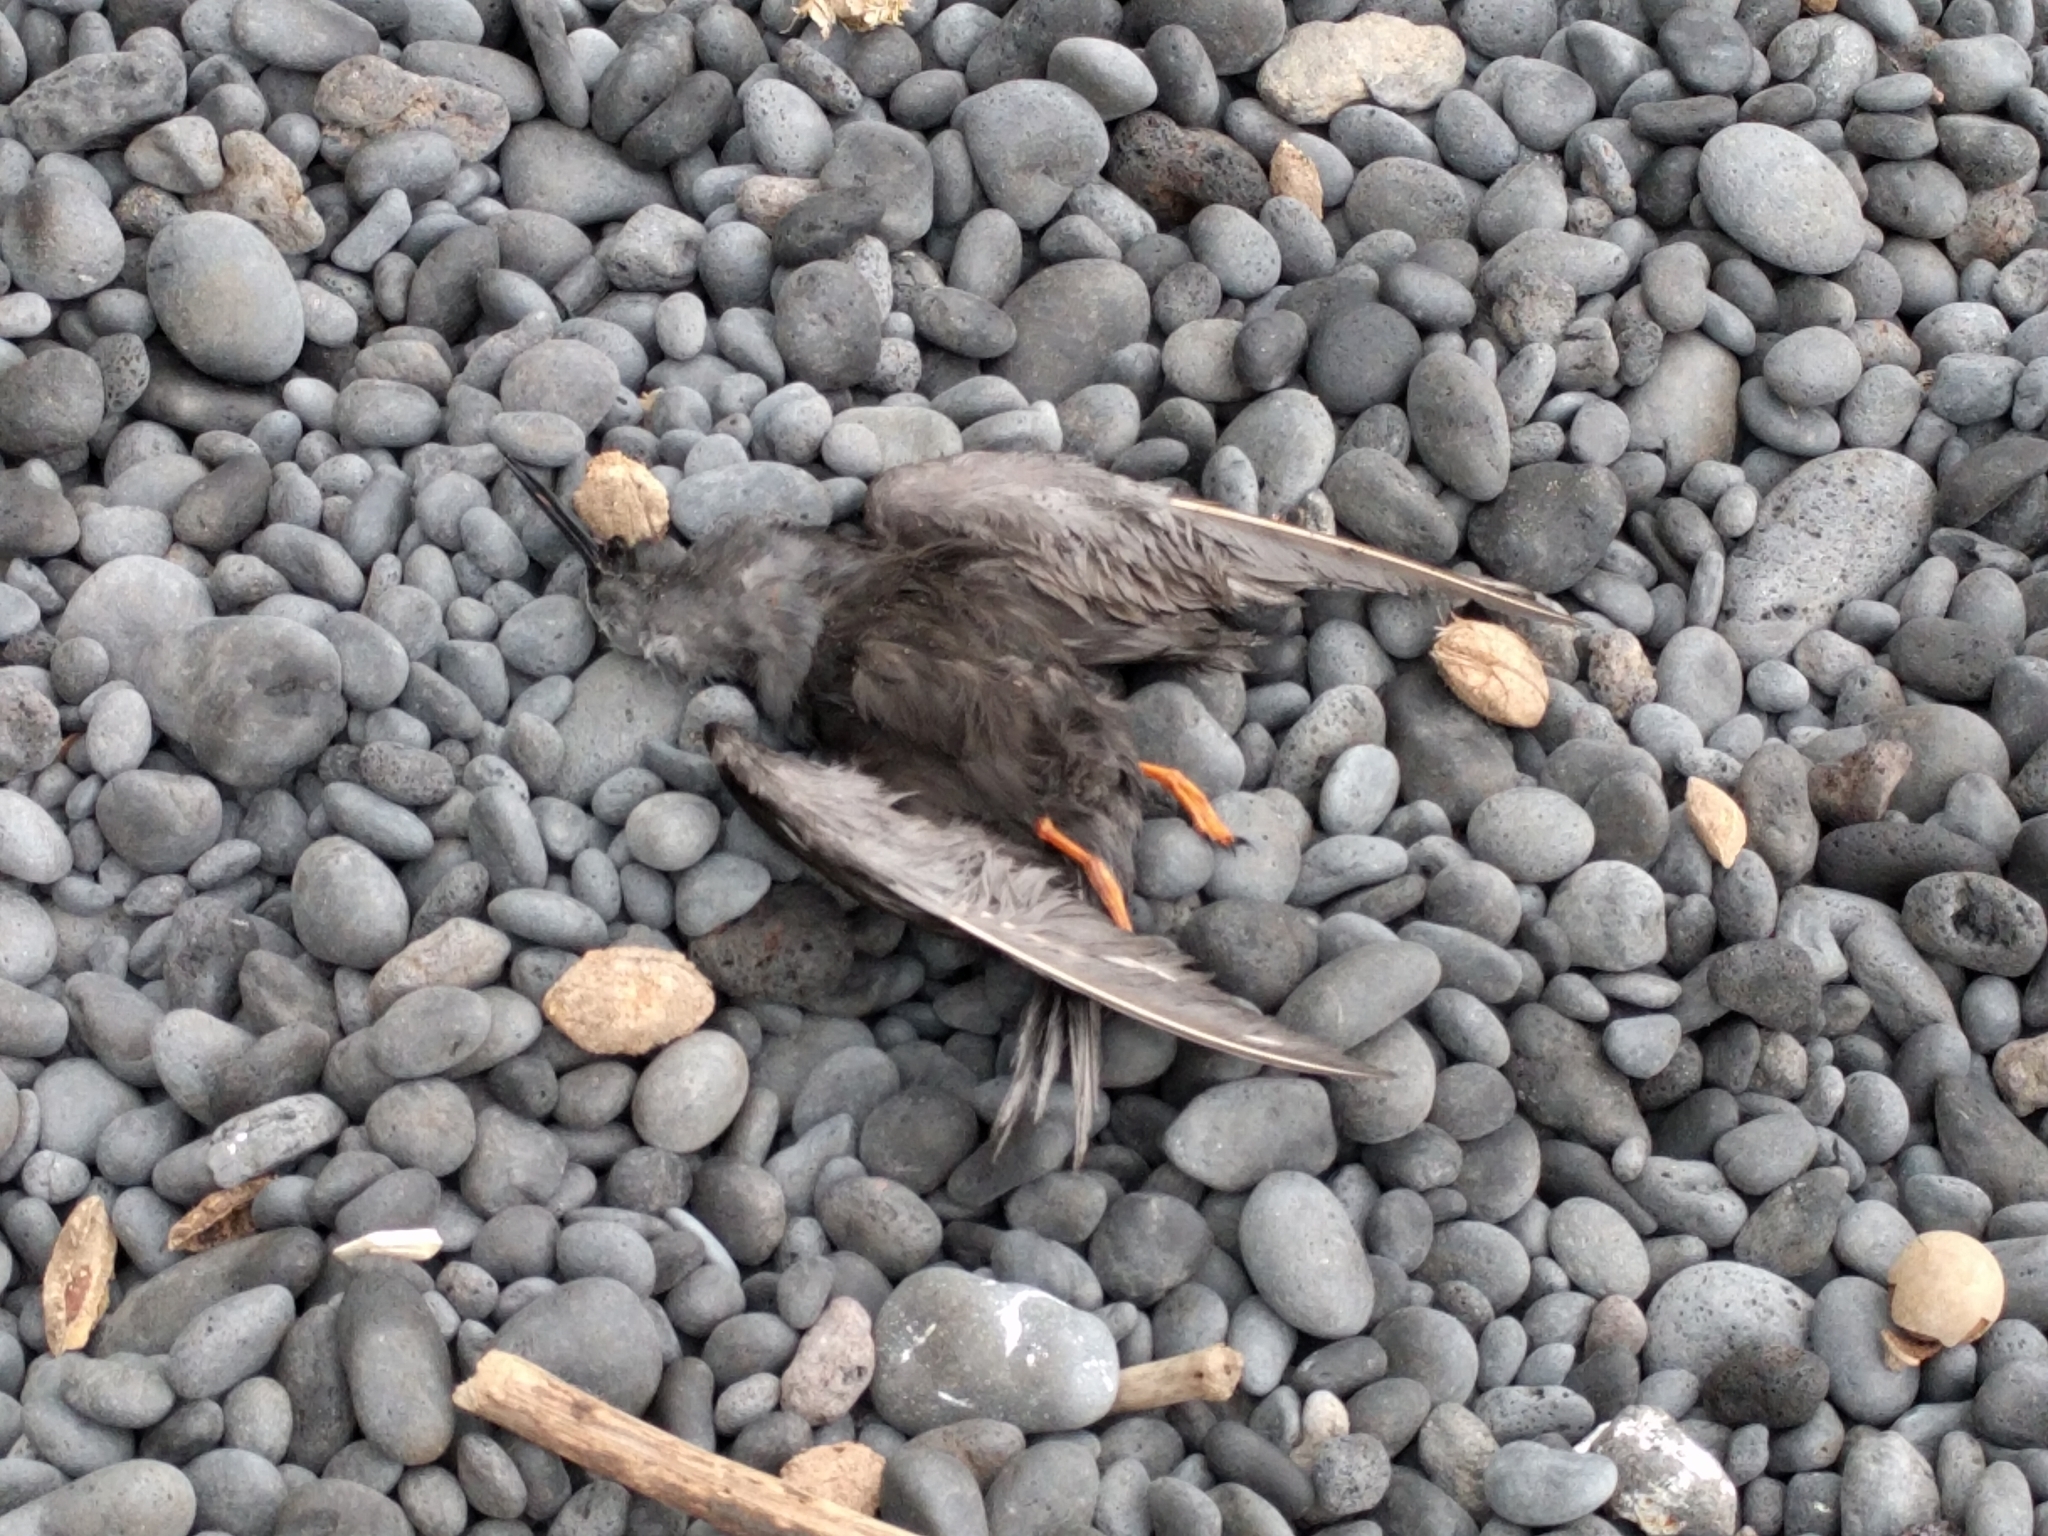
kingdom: Animalia
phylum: Chordata
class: Aves
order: Charadriiformes
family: Laridae
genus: Anous
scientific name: Anous minutus
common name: Black noddy
